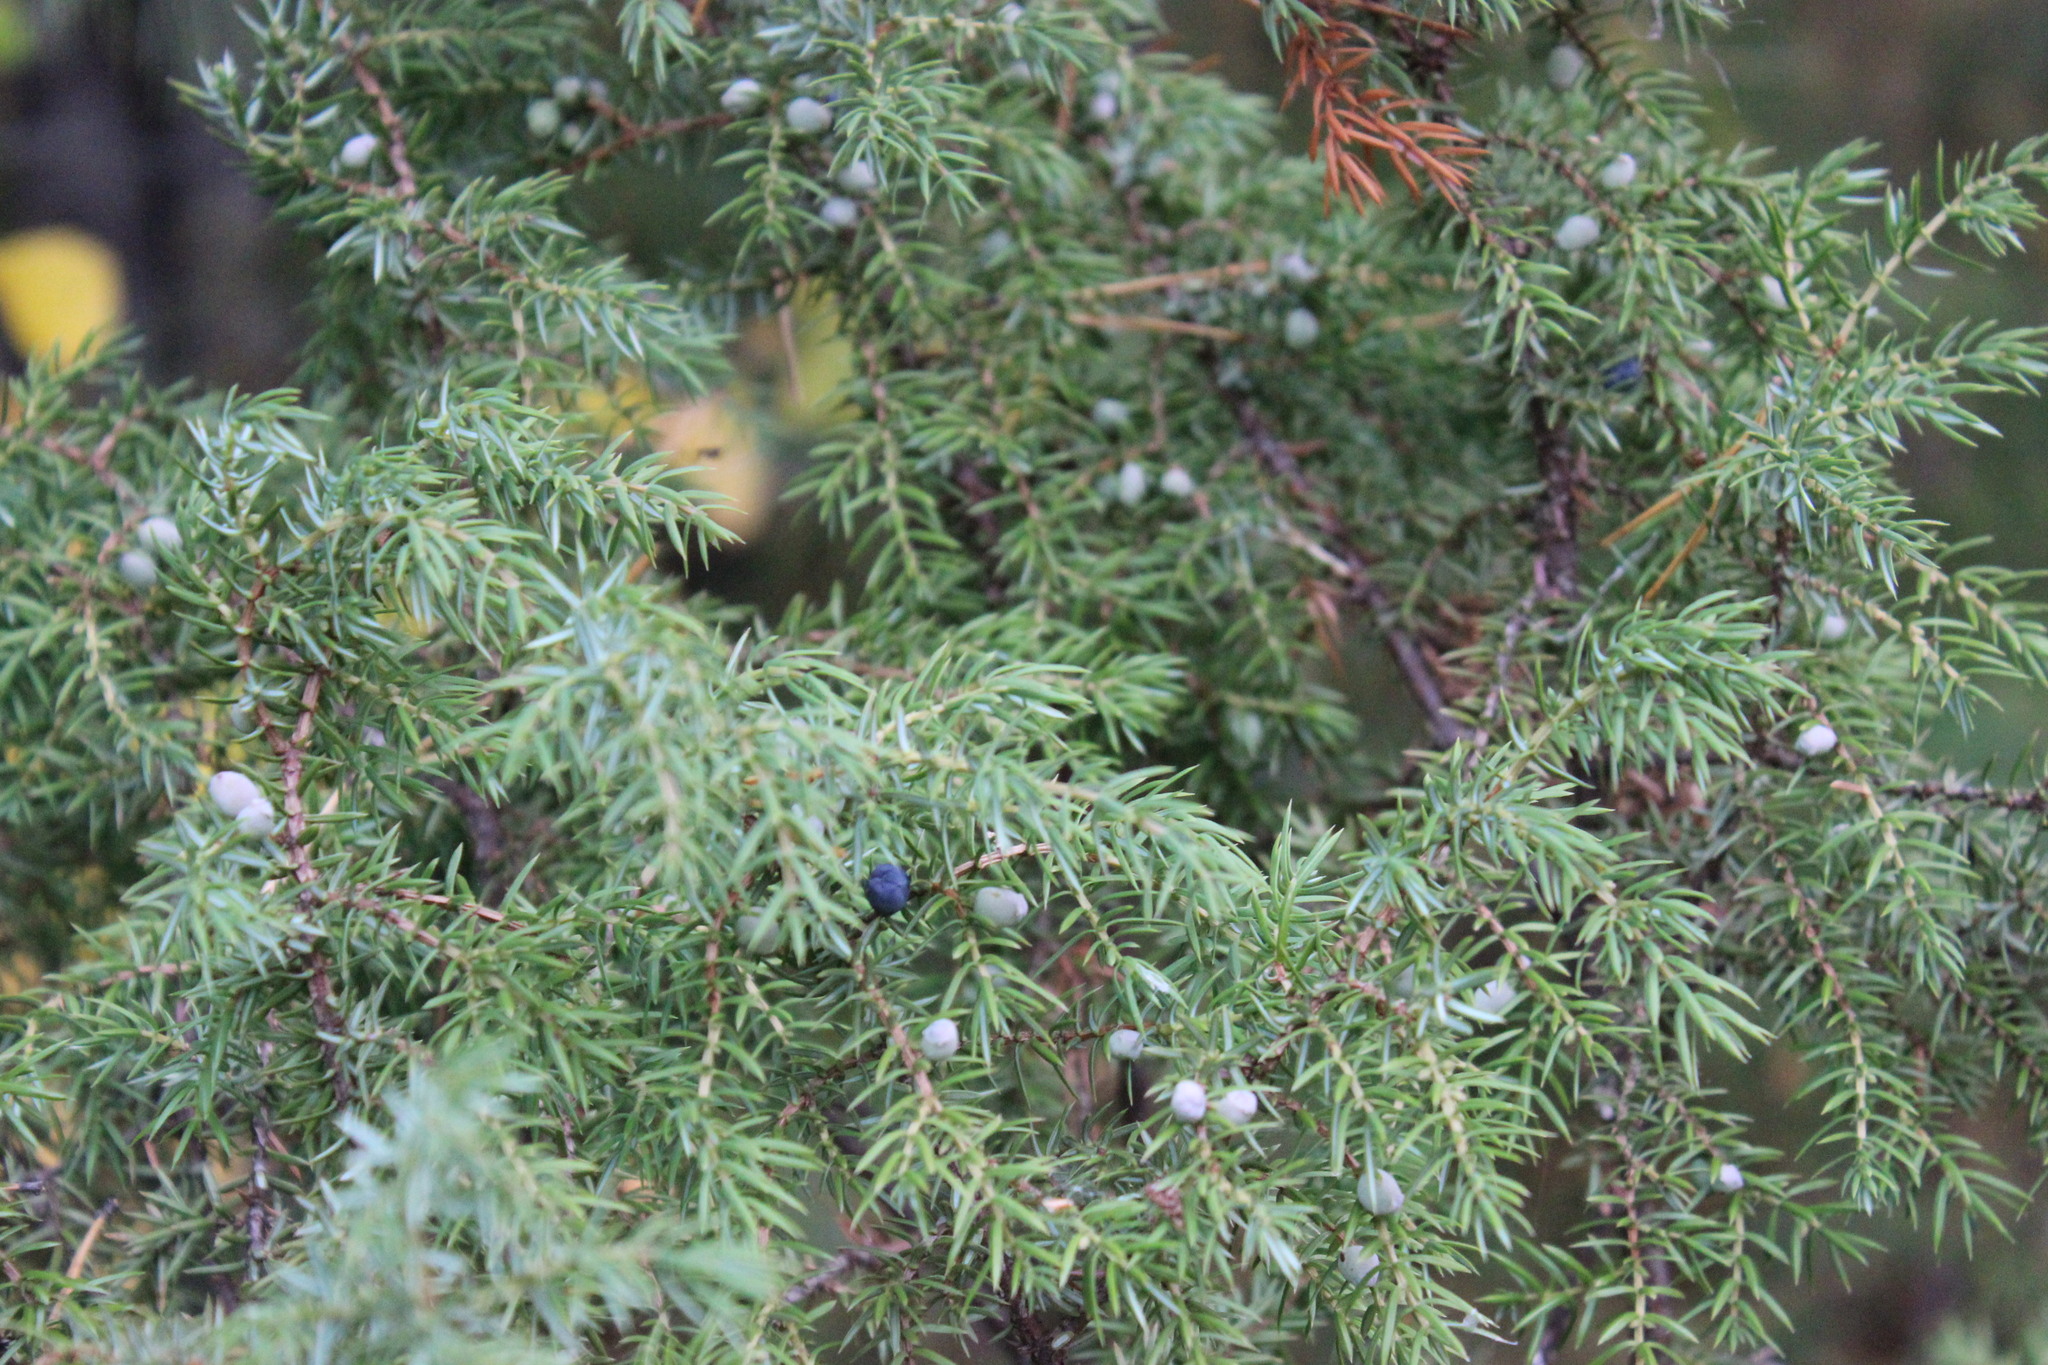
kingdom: Plantae
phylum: Tracheophyta
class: Pinopsida
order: Pinales
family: Cupressaceae
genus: Juniperus
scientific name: Juniperus communis
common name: Common juniper
